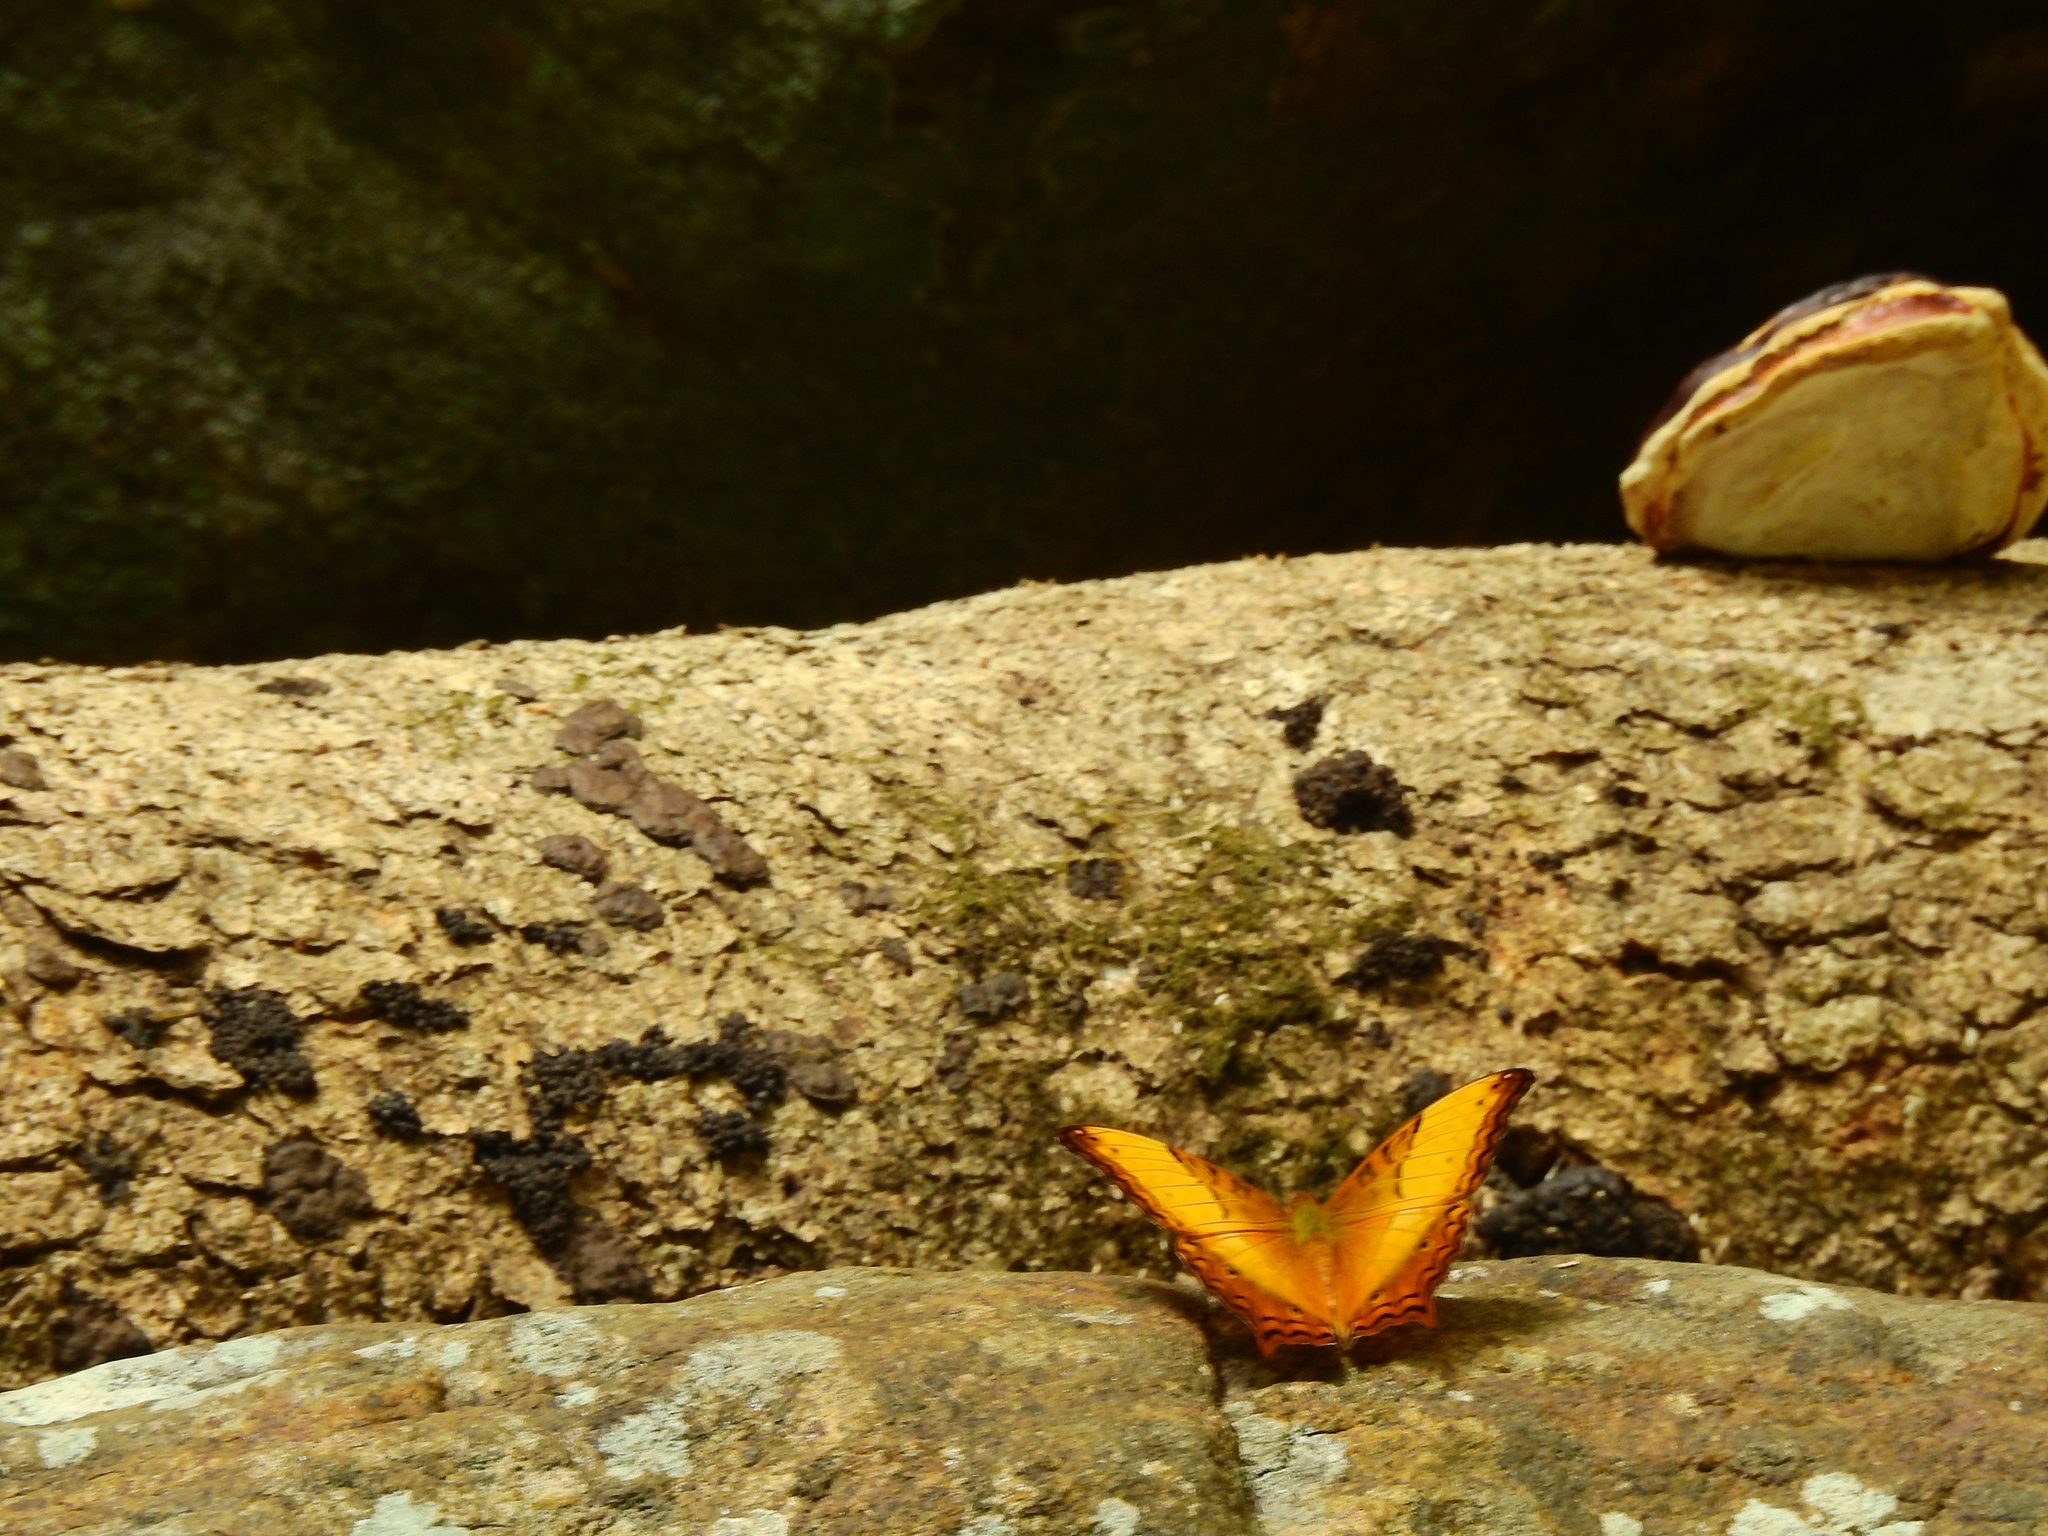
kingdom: Animalia
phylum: Arthropoda
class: Insecta
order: Lepidoptera
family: Nymphalidae
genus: Vindula
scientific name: Vindula erota
